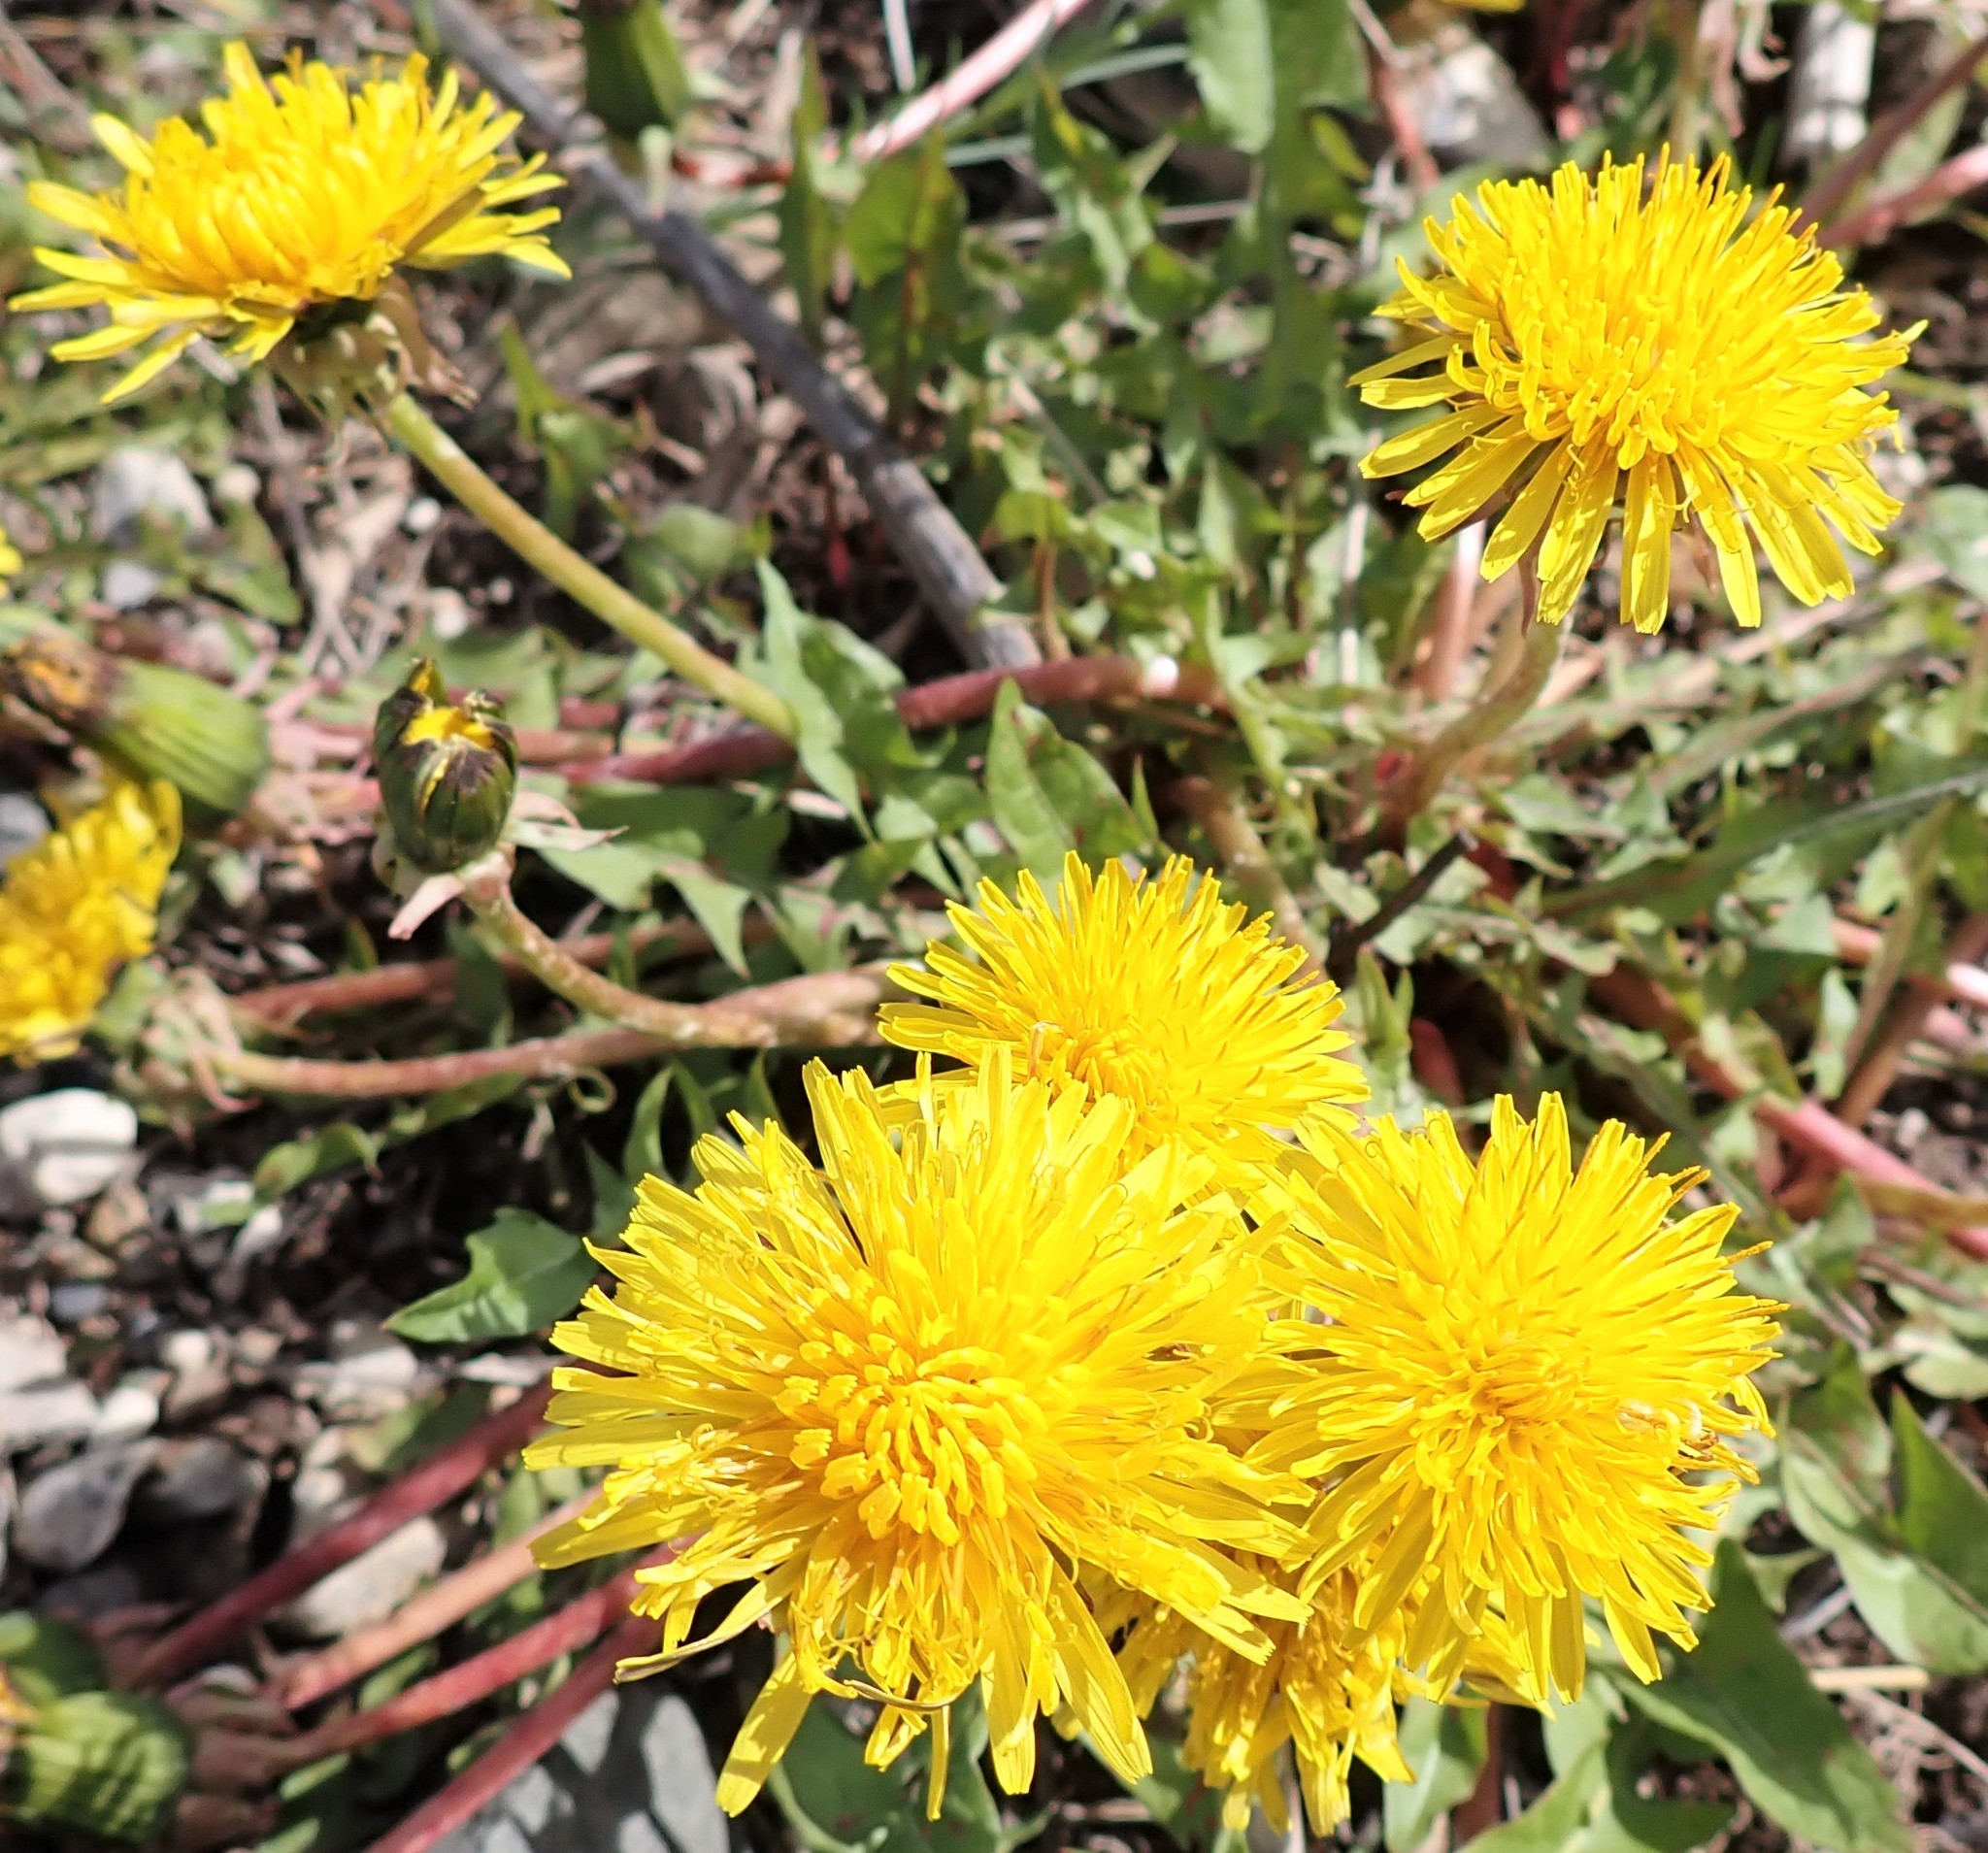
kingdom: Plantae
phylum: Tracheophyta
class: Magnoliopsida
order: Asterales
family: Asteraceae
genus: Taraxacum
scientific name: Taraxacum officinale
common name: Common dandelion
